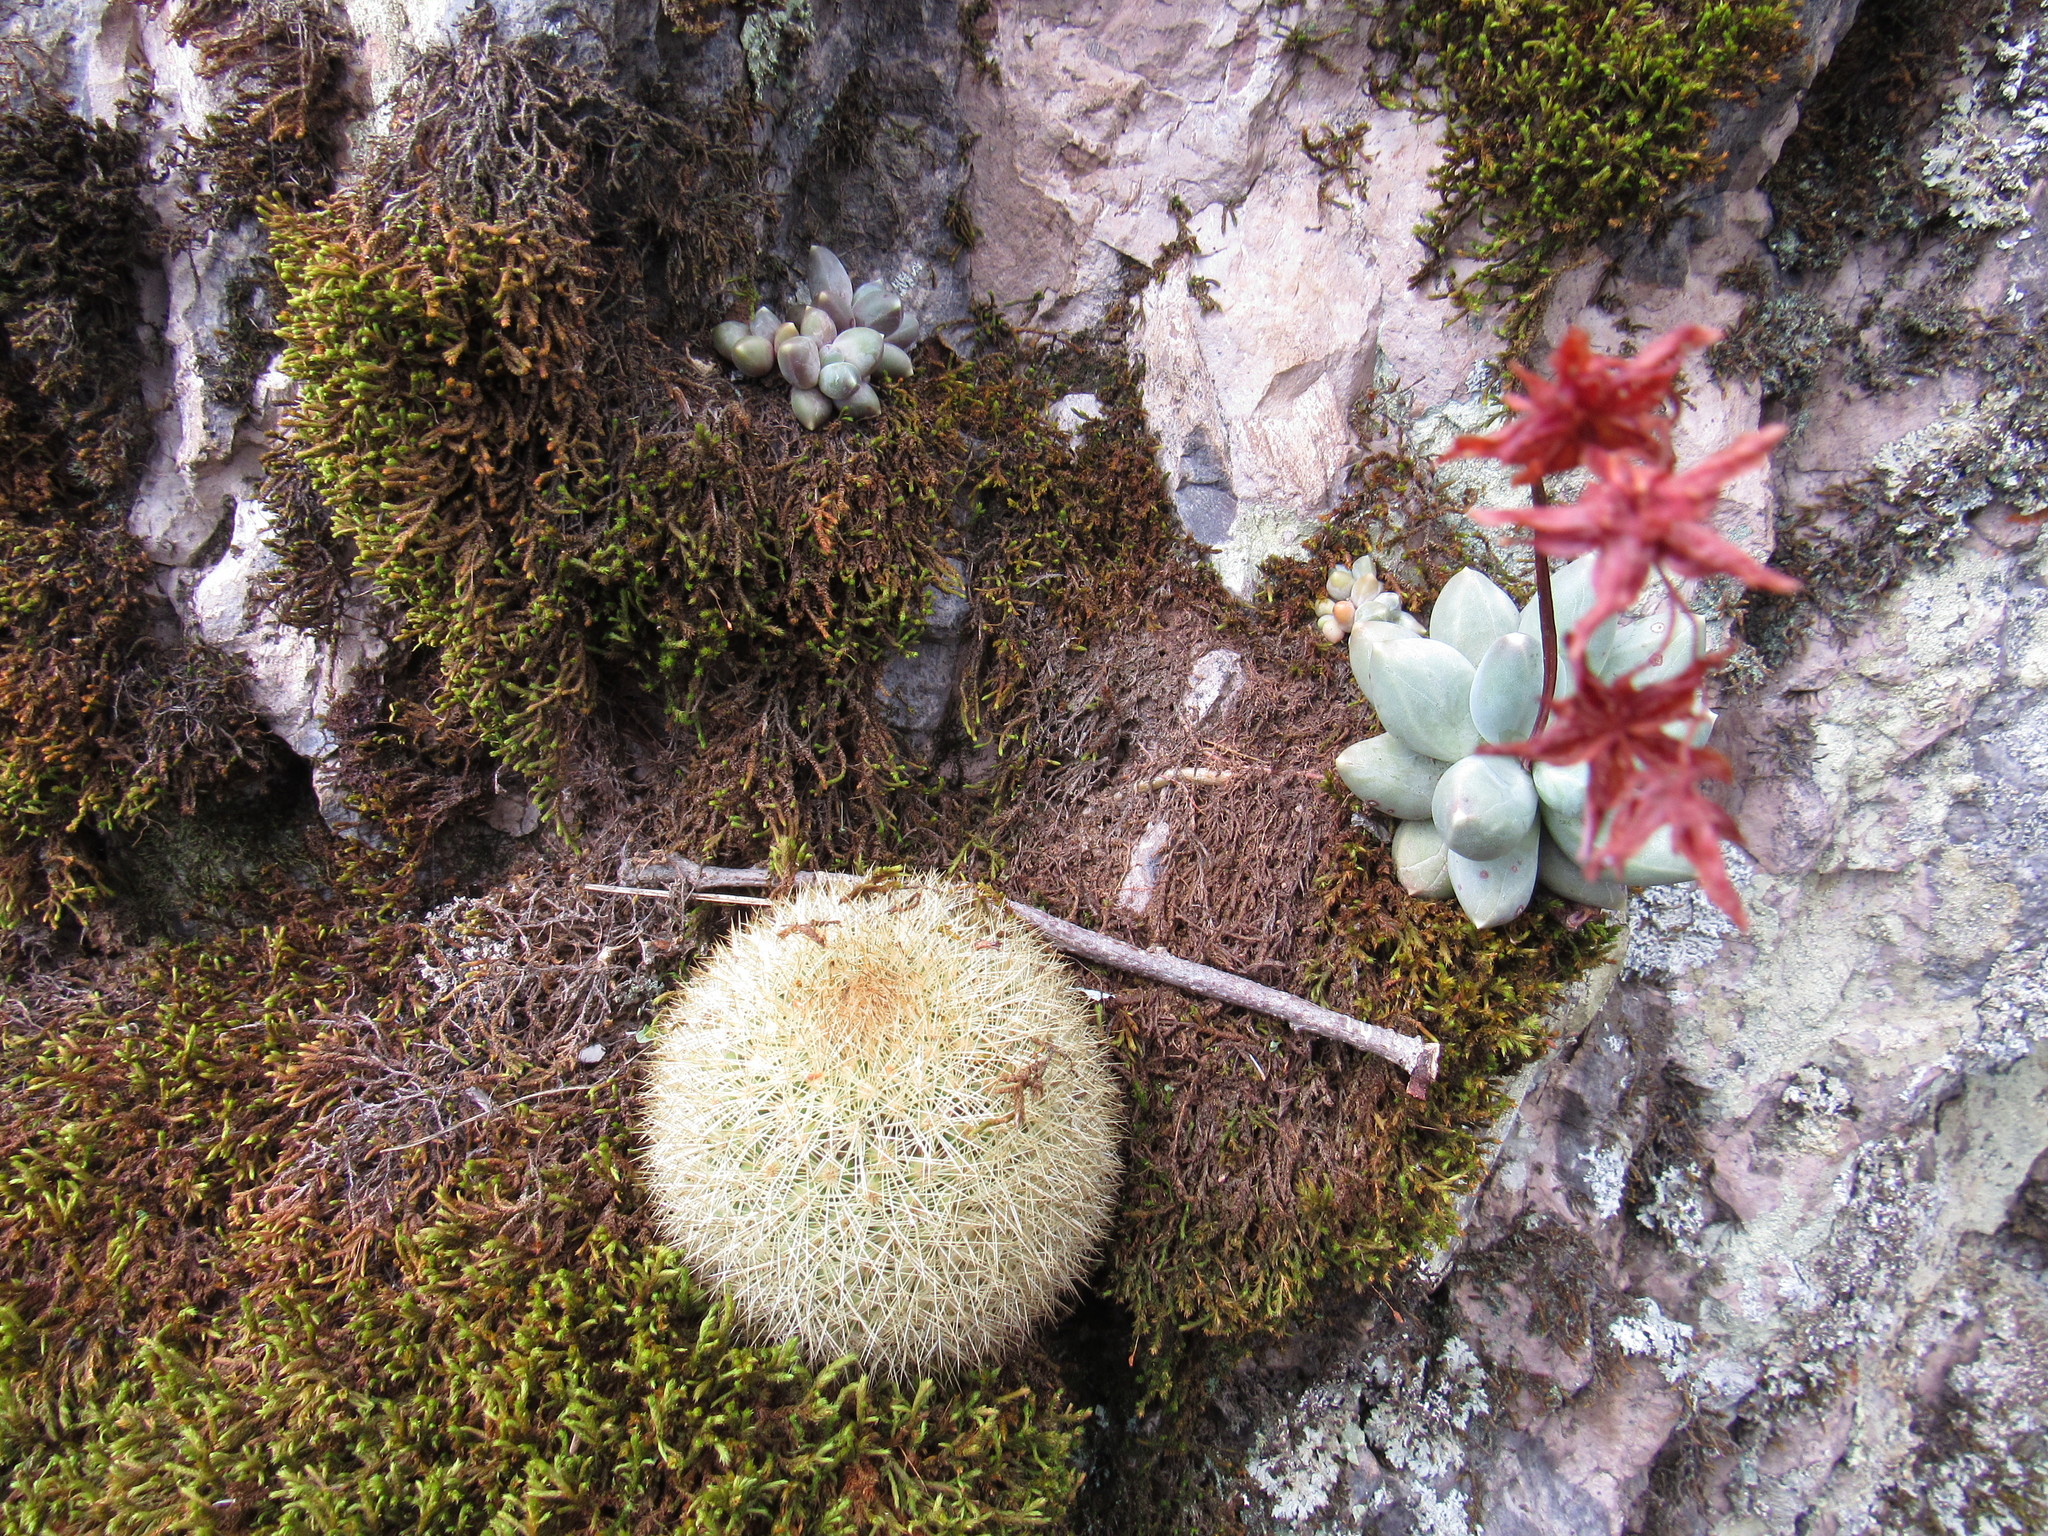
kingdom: Plantae
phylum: Tracheophyta
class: Magnoliopsida
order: Caryophyllales
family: Cactaceae
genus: Mammillaria
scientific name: Mammillaria densispina
